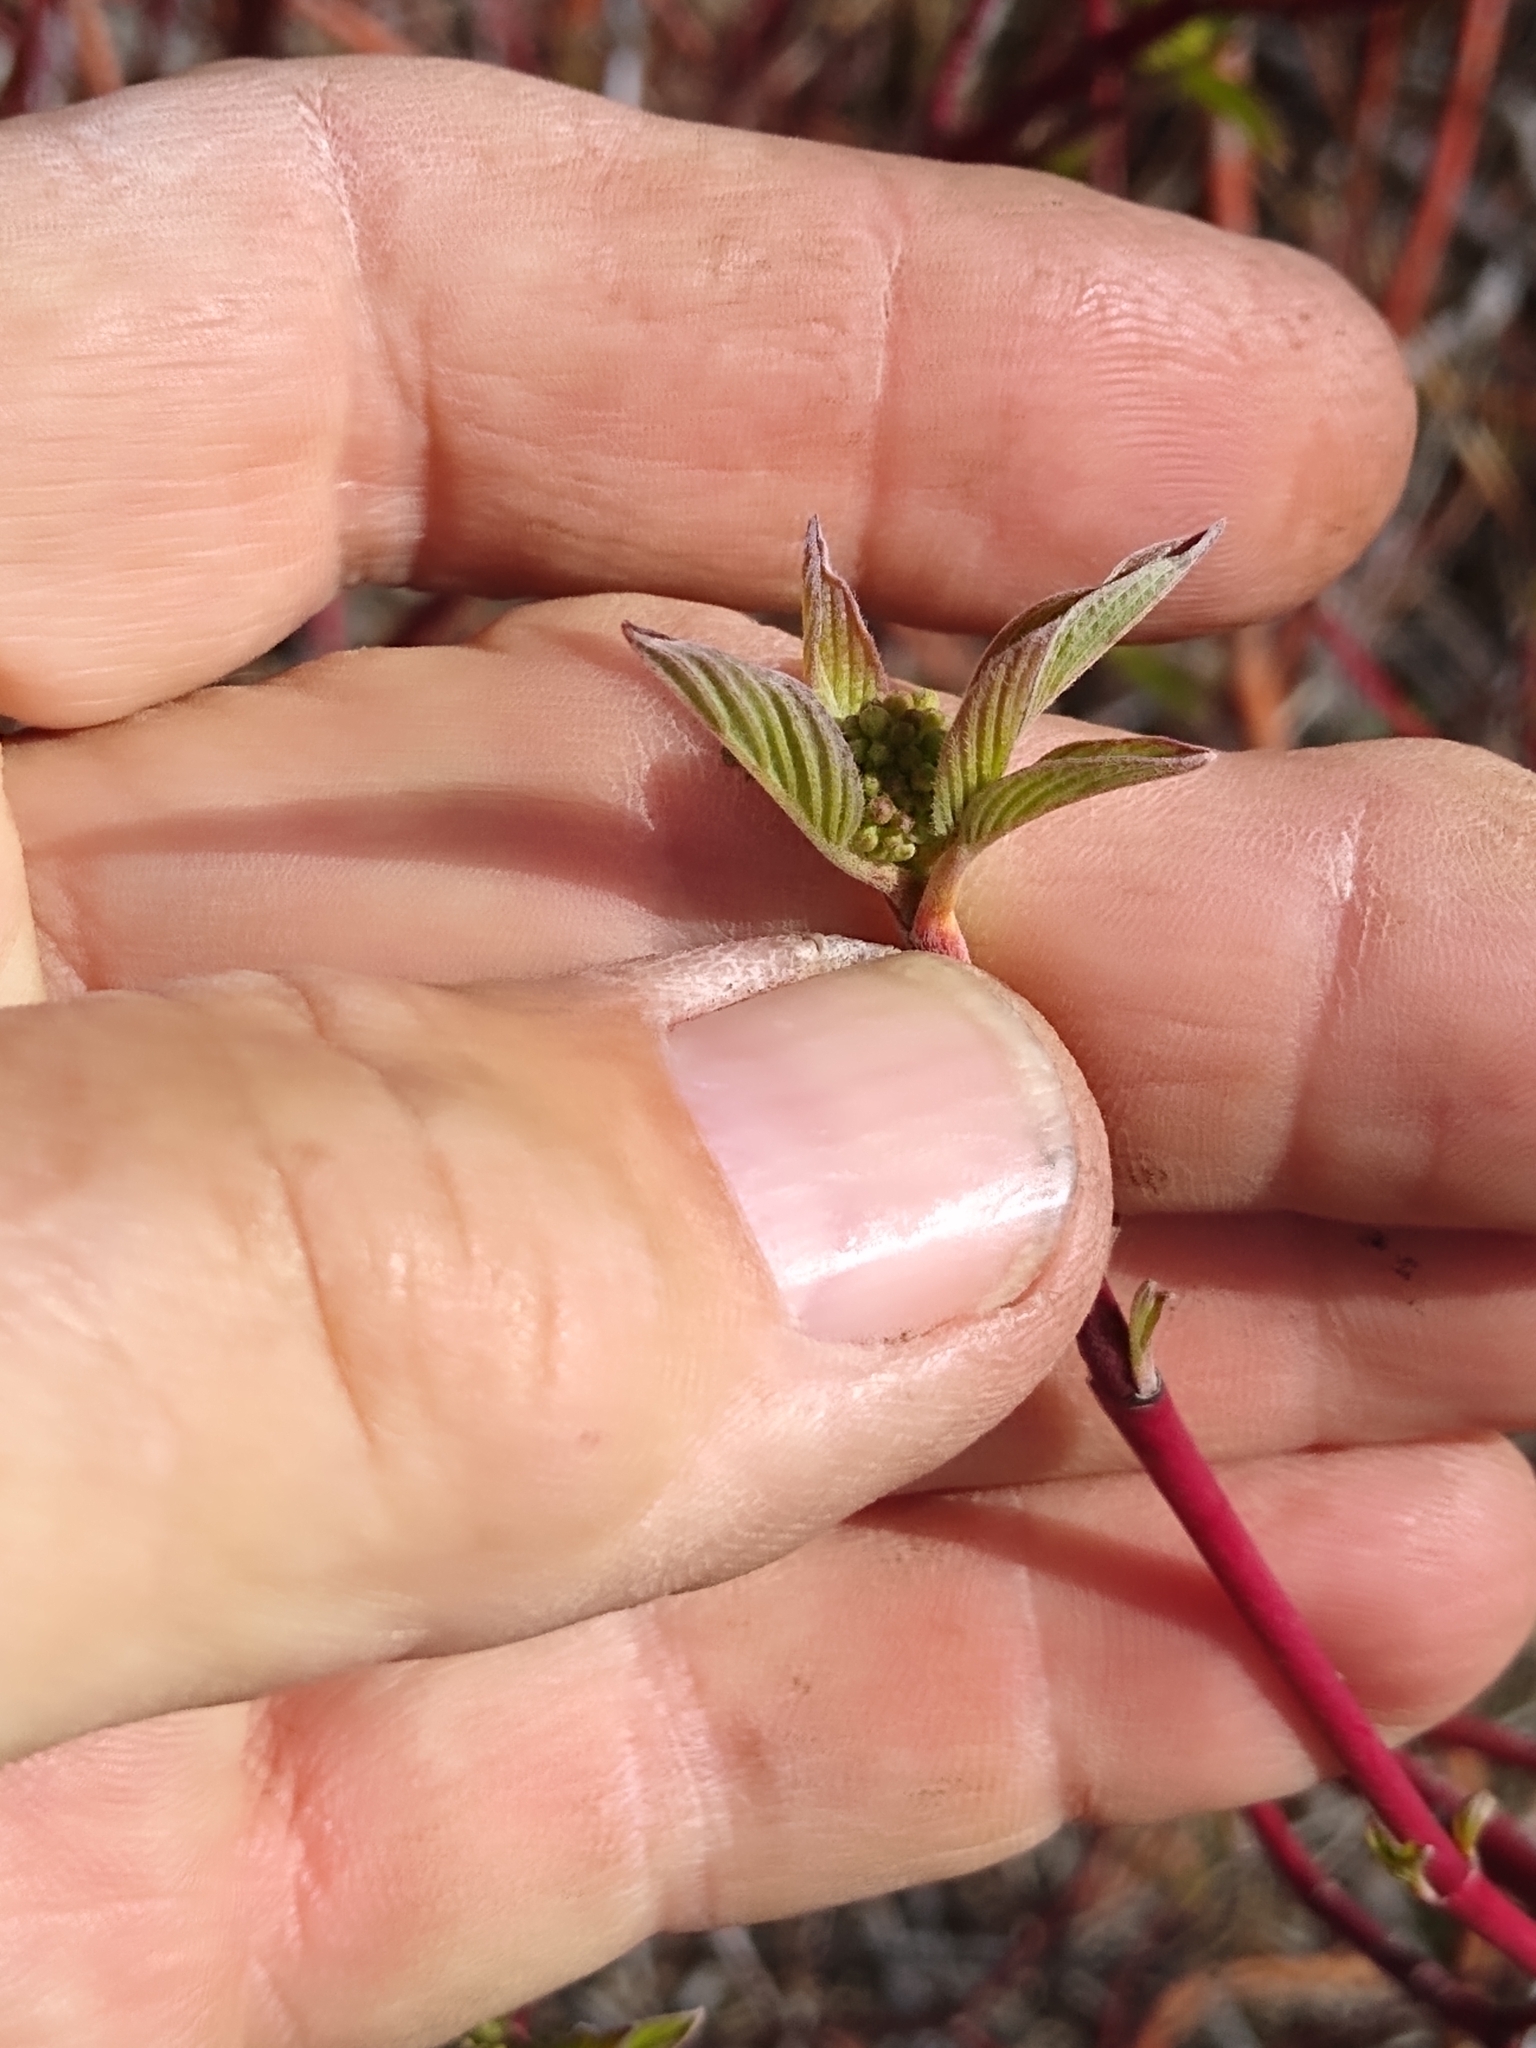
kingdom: Plantae
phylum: Tracheophyta
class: Magnoliopsida
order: Cornales
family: Cornaceae
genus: Cornus
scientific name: Cornus sericea
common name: Red-osier dogwood
